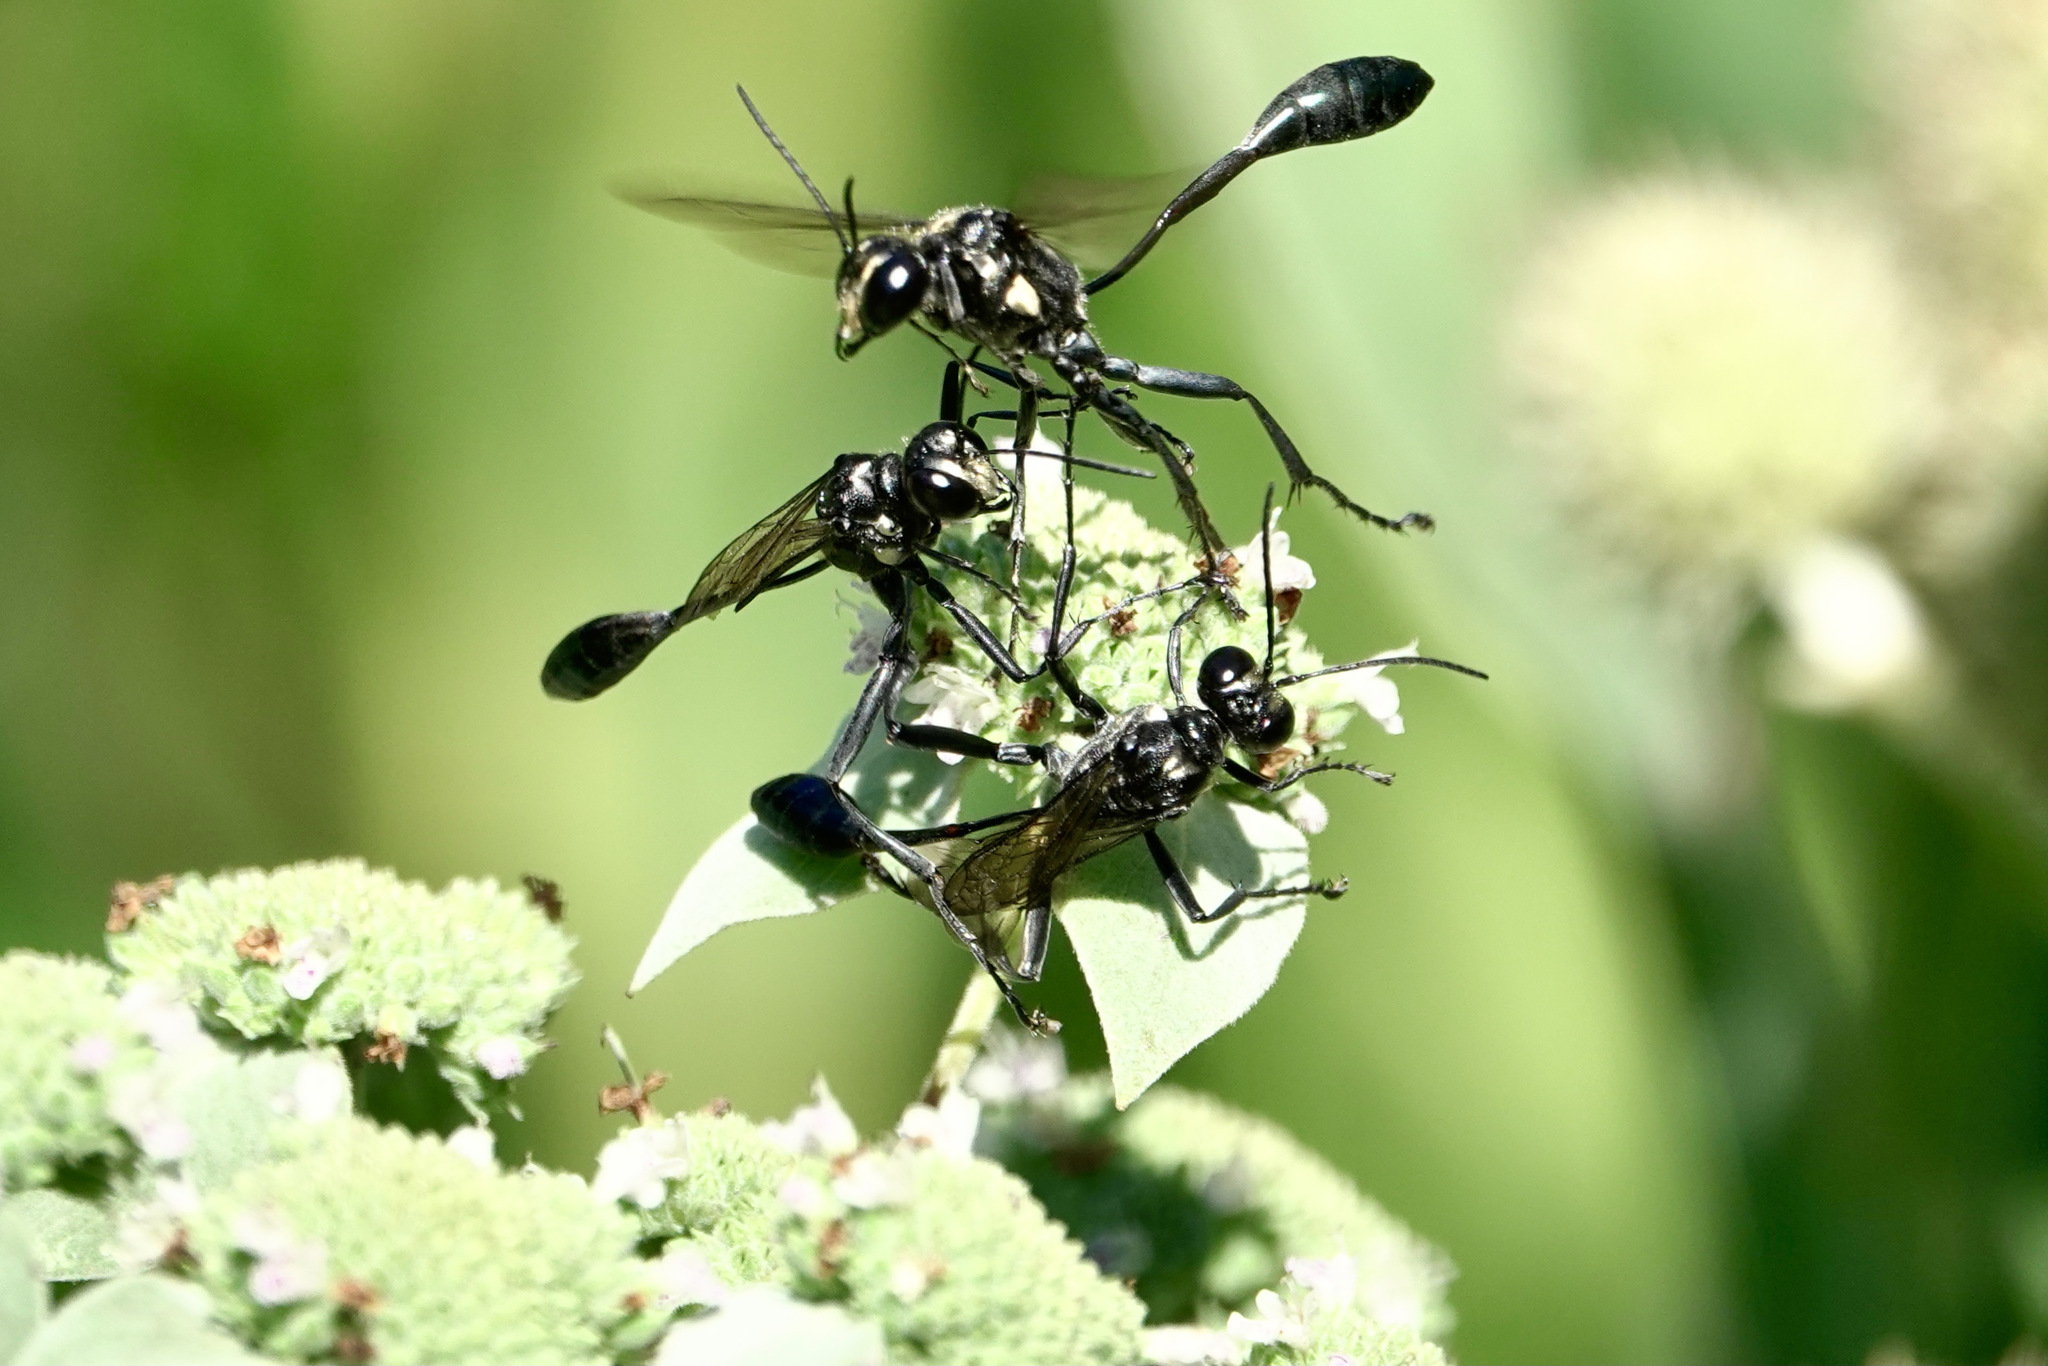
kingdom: Animalia
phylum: Arthropoda
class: Insecta
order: Hymenoptera
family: Sphecidae
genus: Eremnophila
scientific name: Eremnophila aureonotata
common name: Gold-marked thread-waisted wasp
